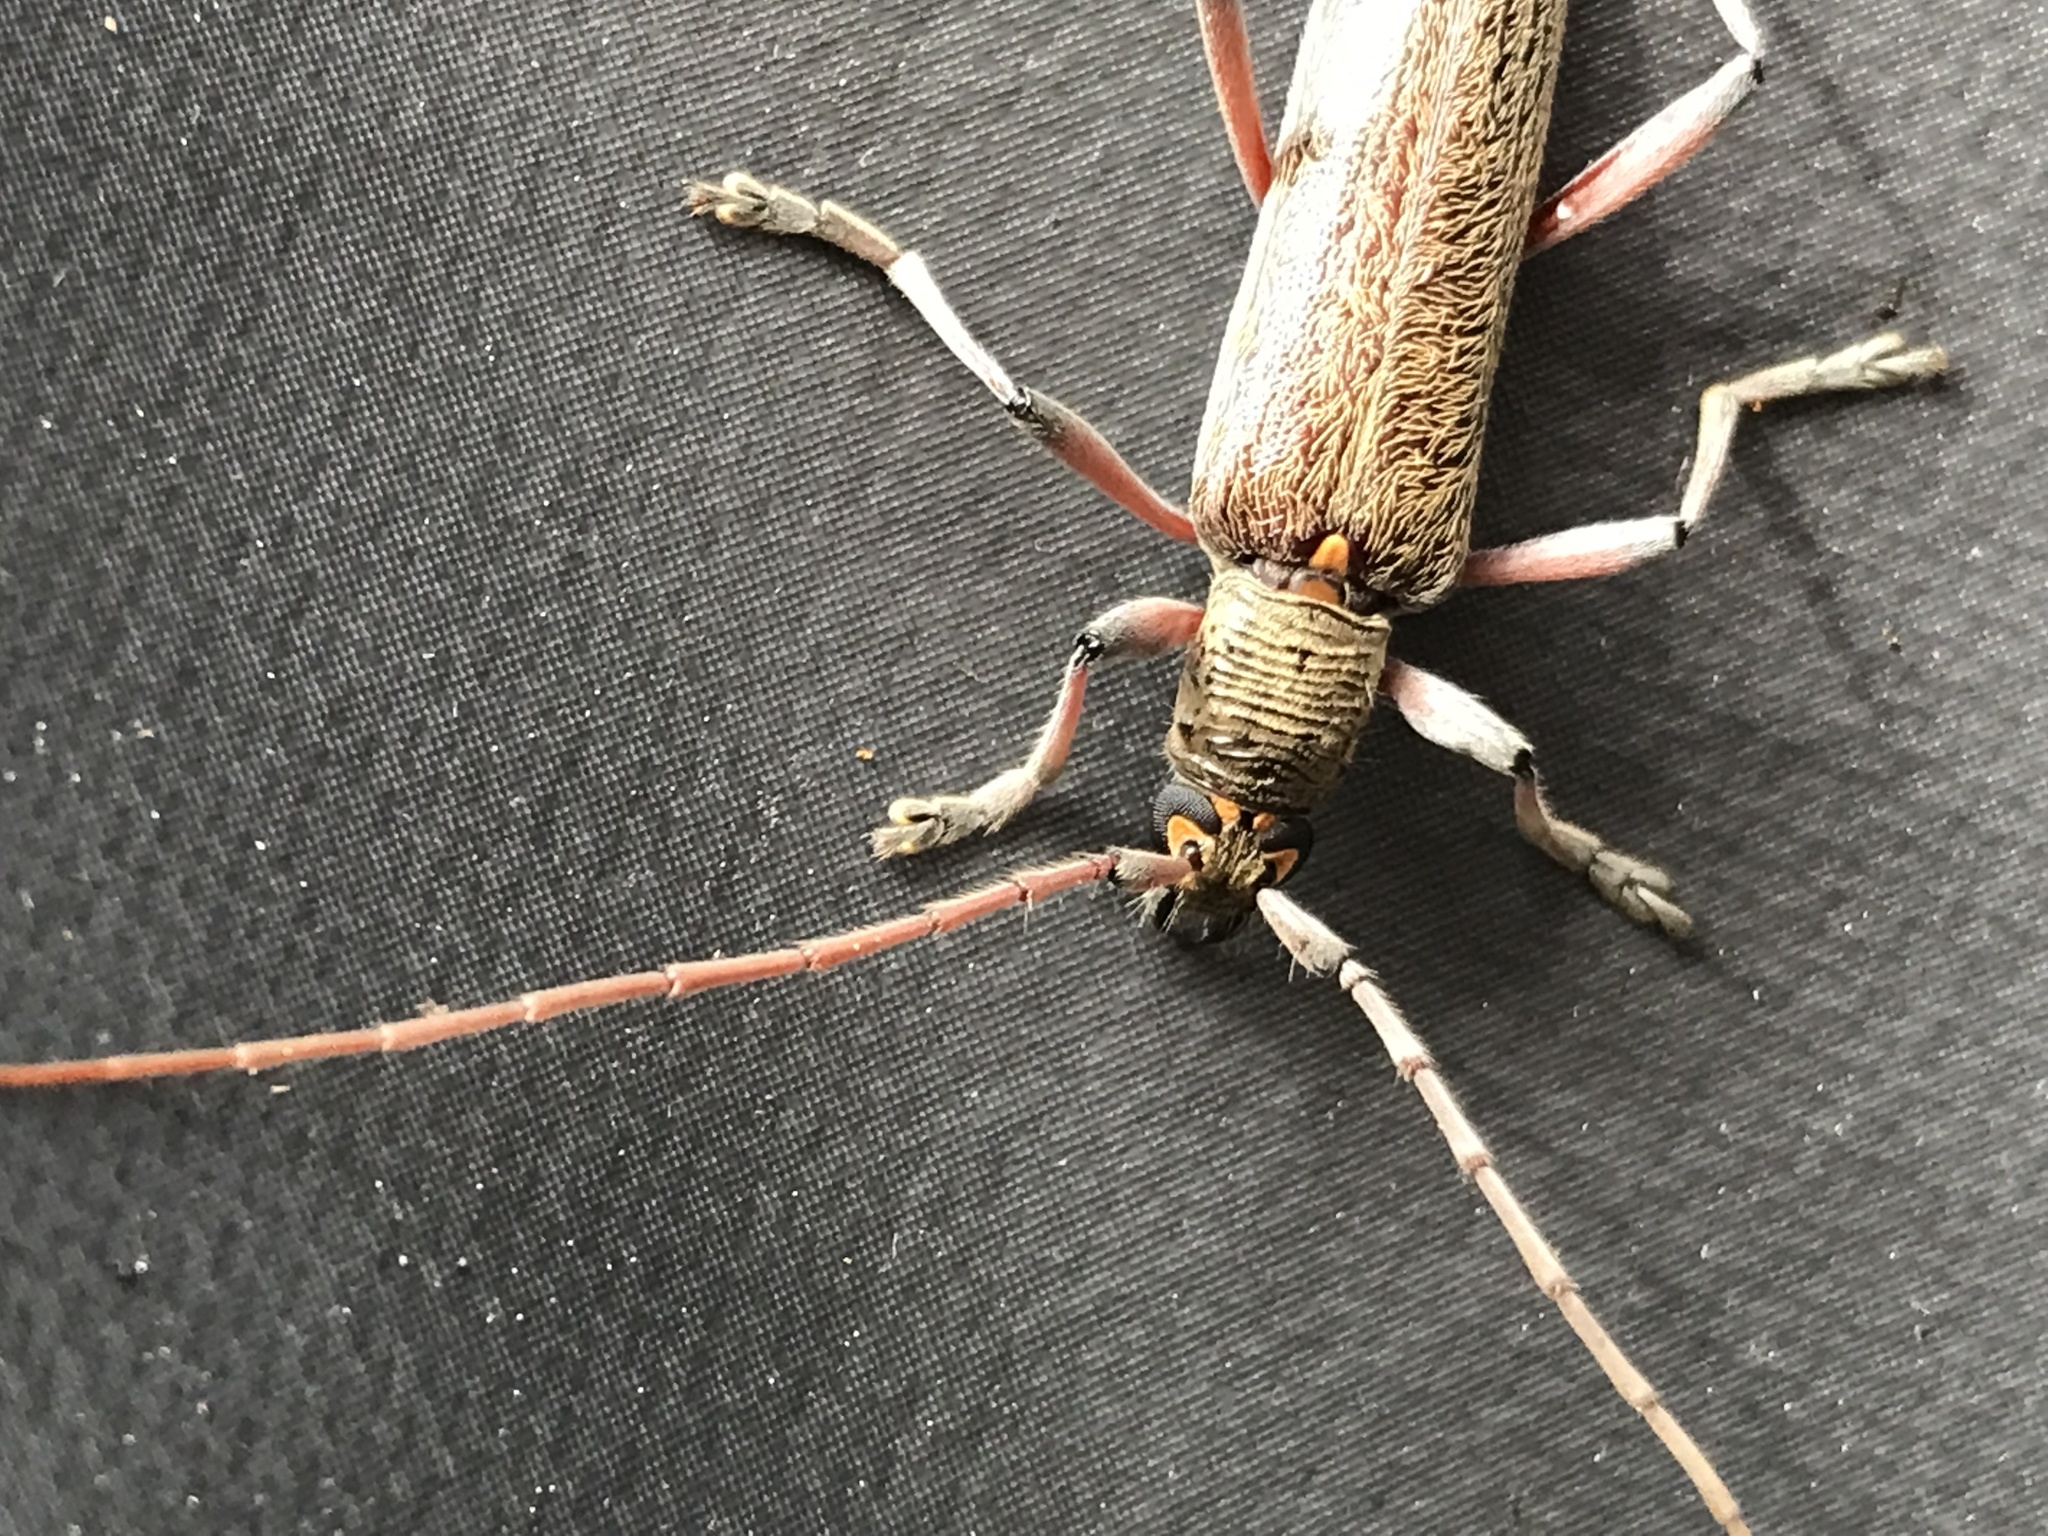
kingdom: Animalia
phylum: Arthropoda
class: Insecta
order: Coleoptera
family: Cerambycidae
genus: Oemona
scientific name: Oemona hirta
